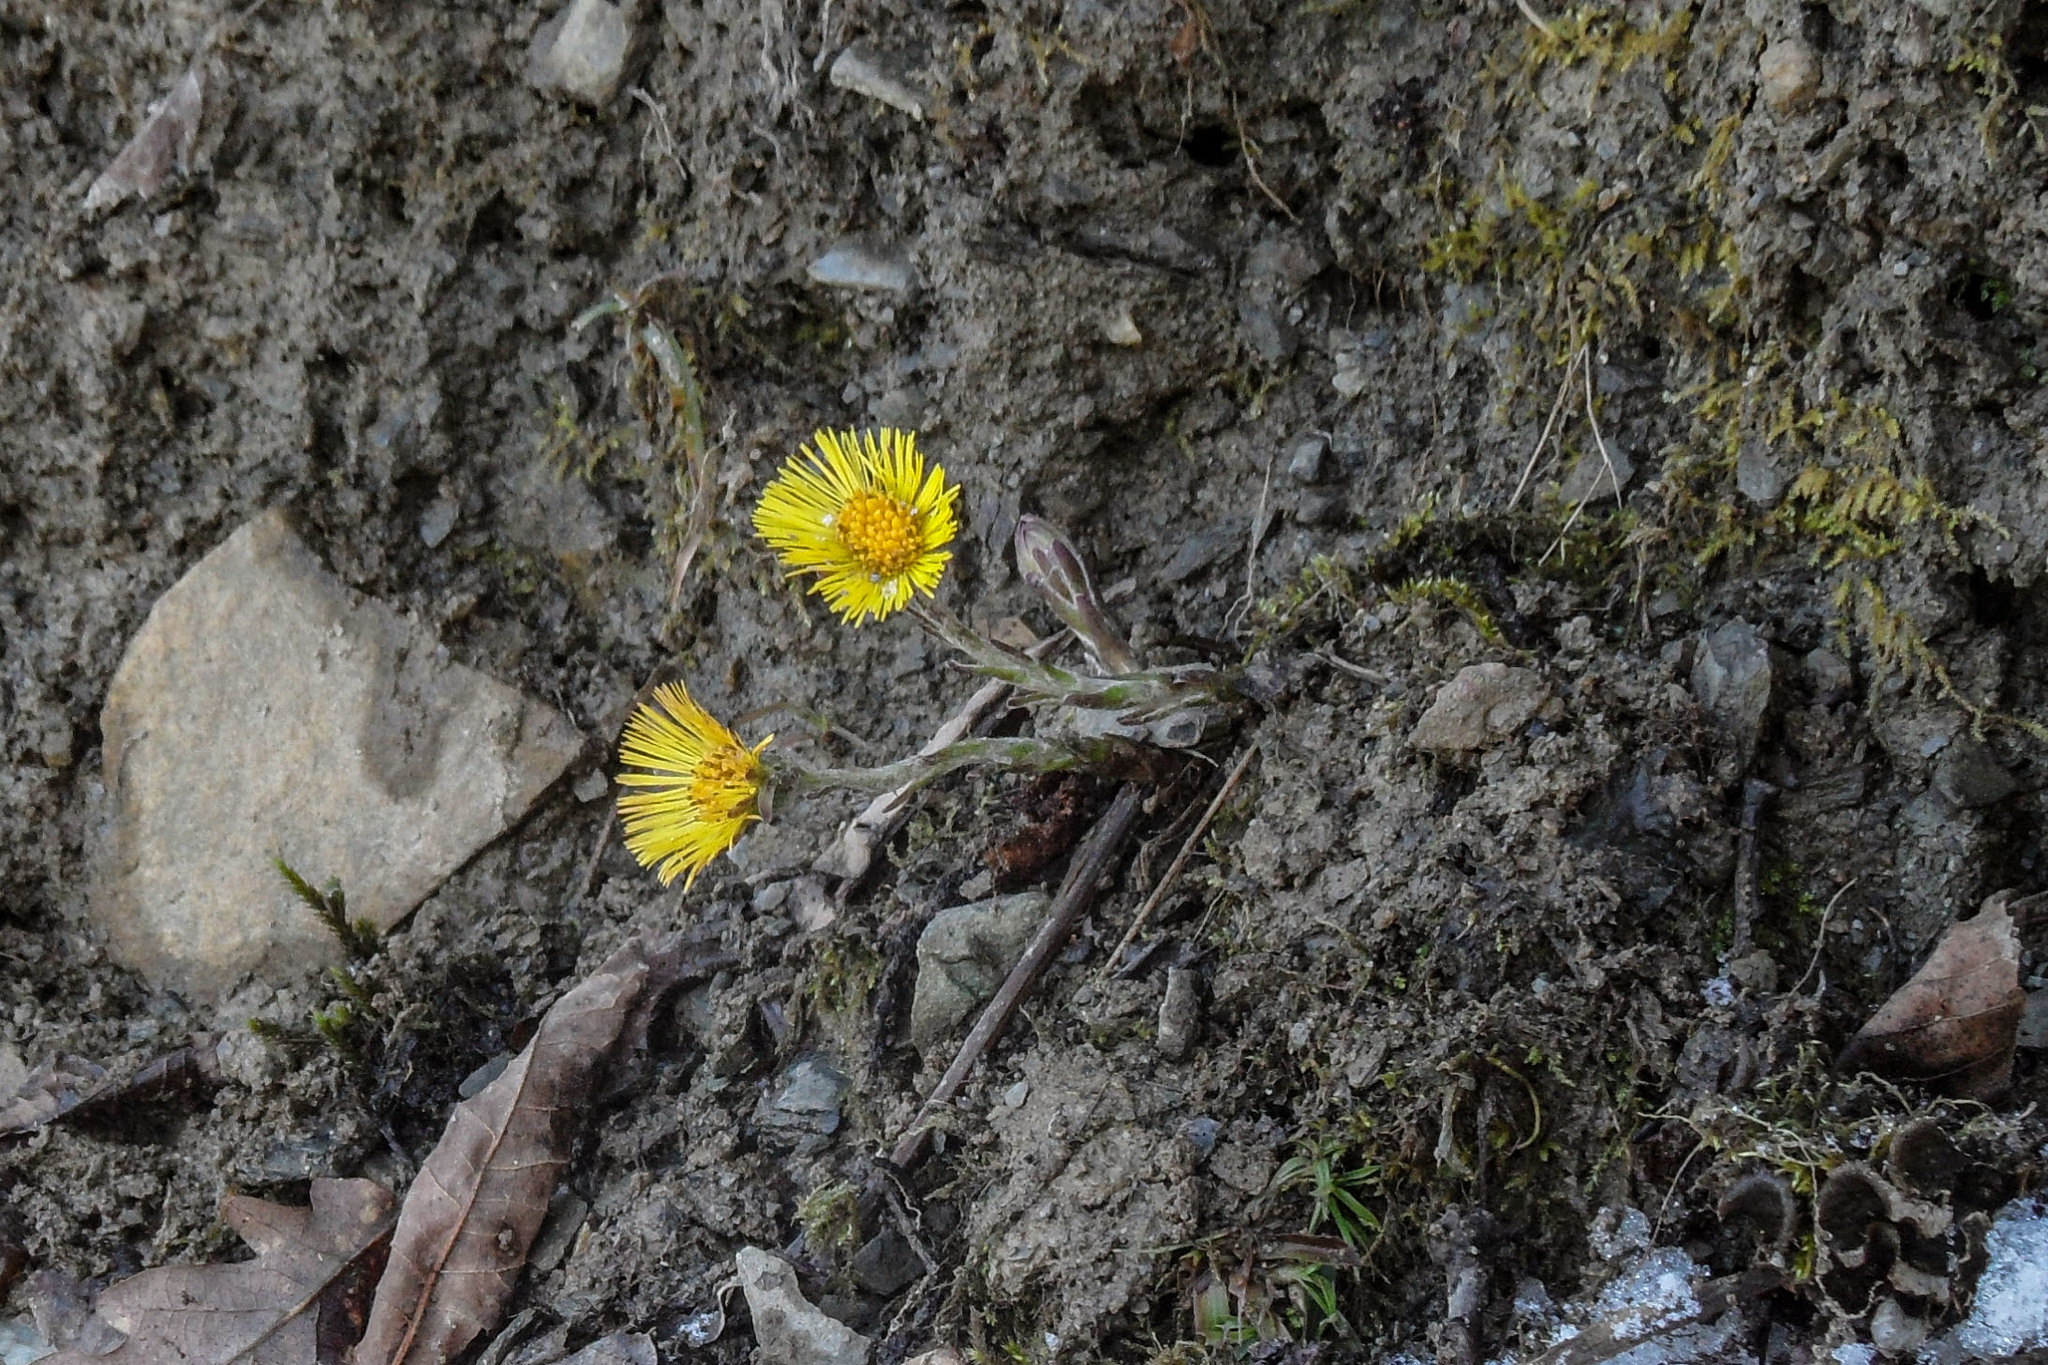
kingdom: Plantae
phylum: Tracheophyta
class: Magnoliopsida
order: Asterales
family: Asteraceae
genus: Tussilago
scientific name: Tussilago farfara
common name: Coltsfoot
